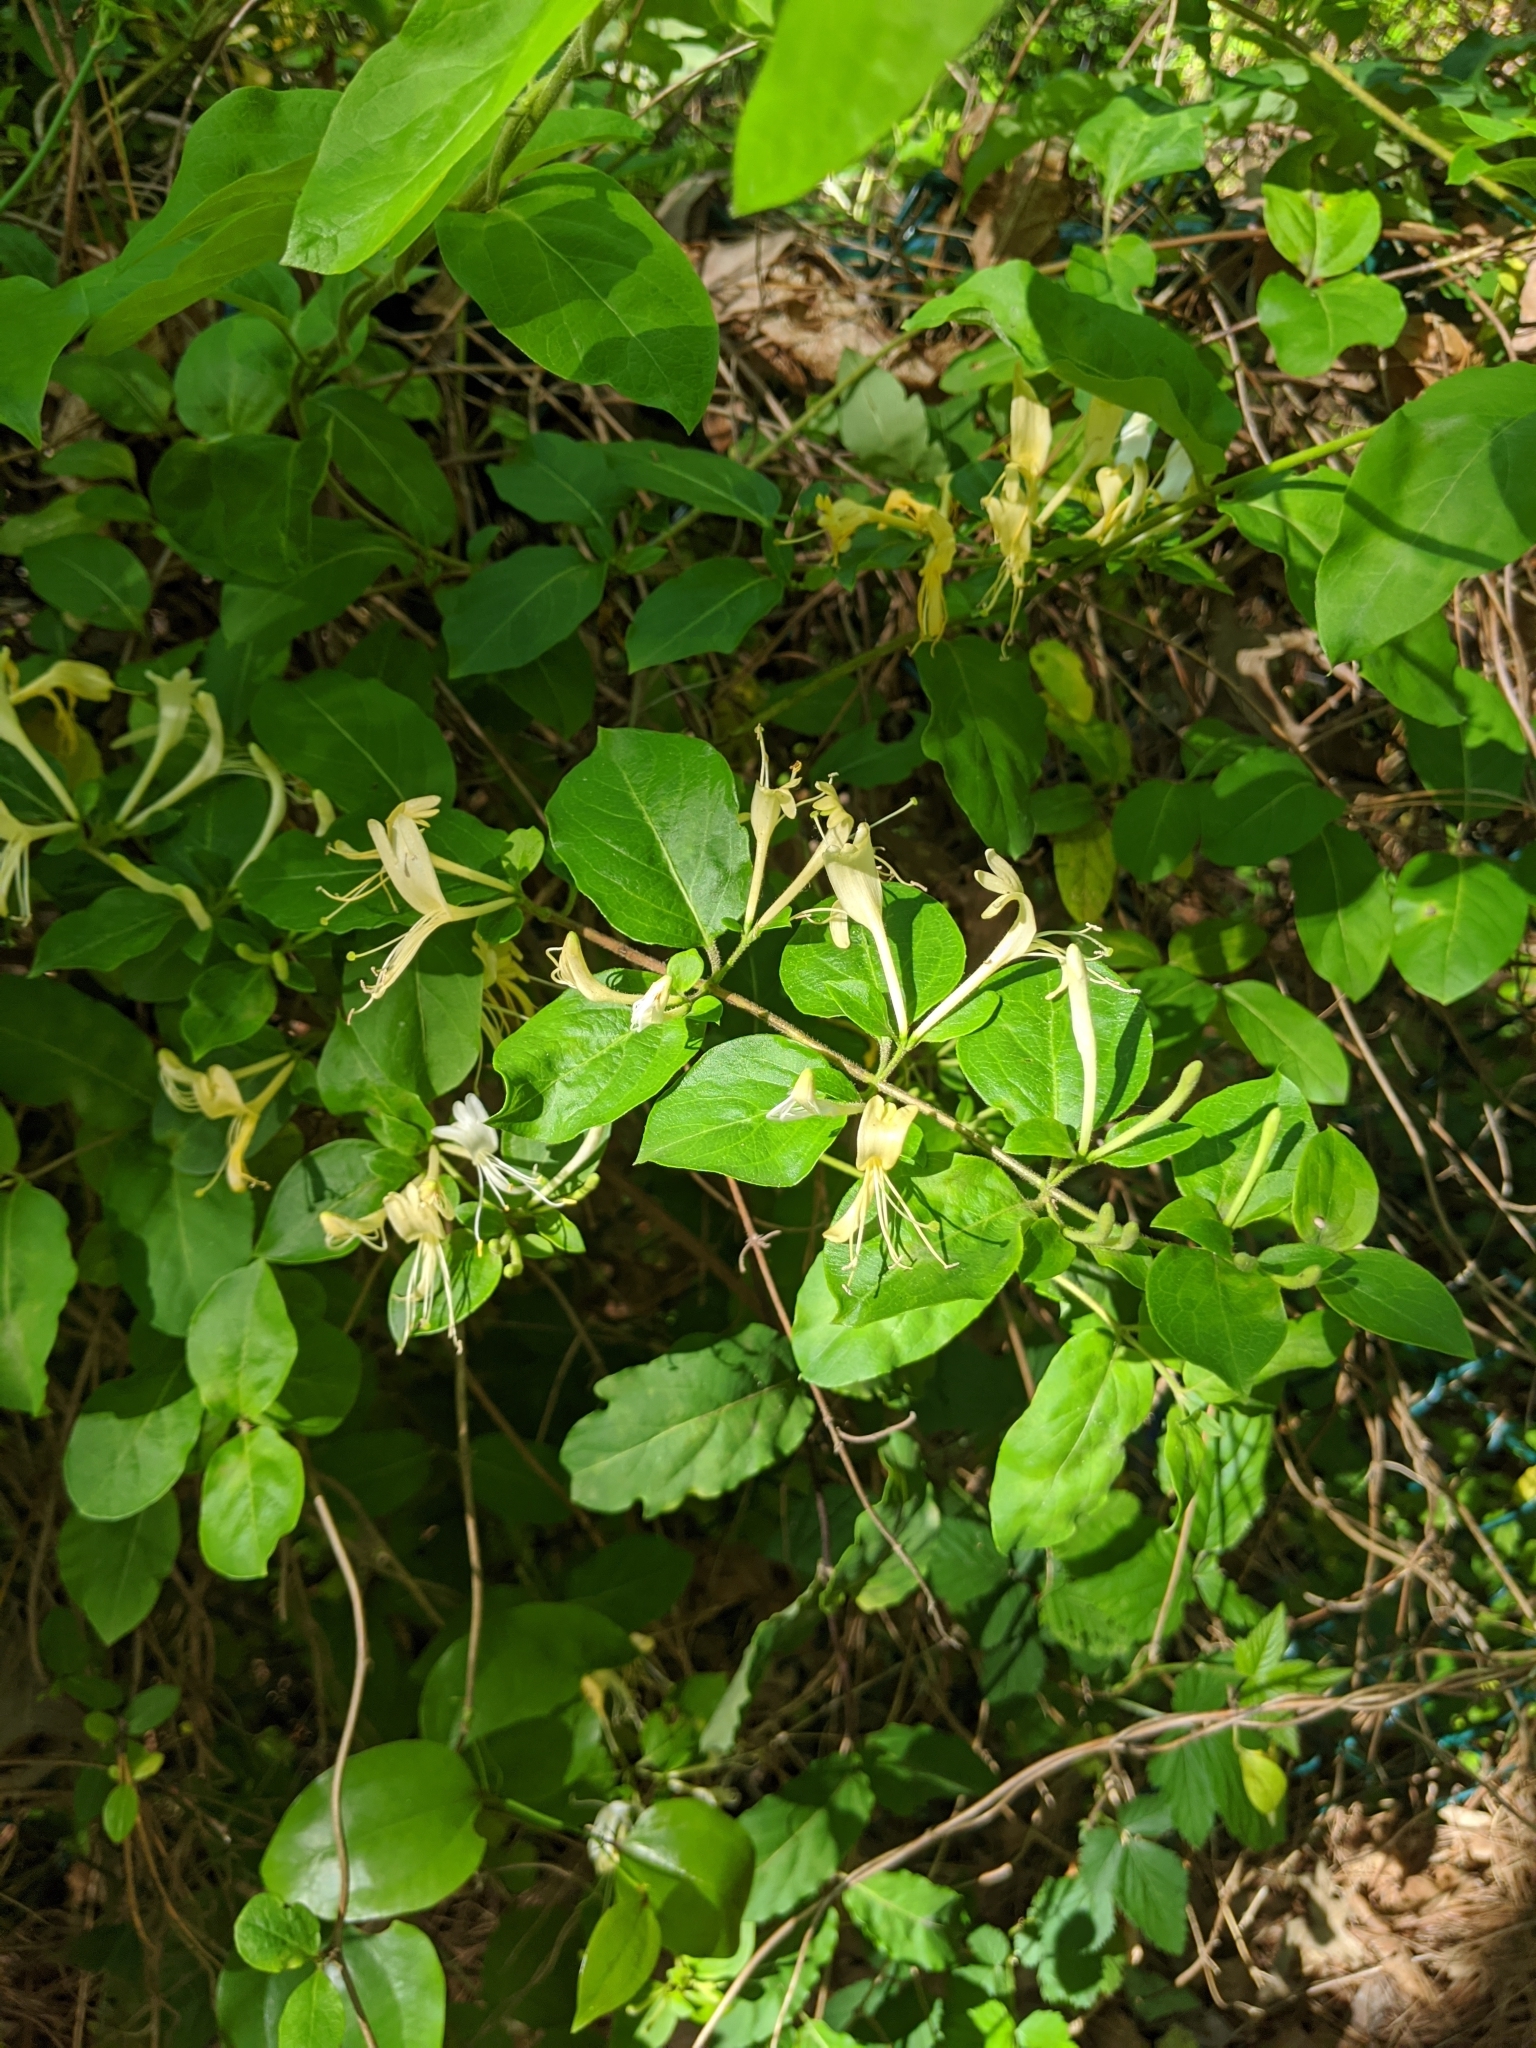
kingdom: Plantae
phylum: Tracheophyta
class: Magnoliopsida
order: Dipsacales
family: Caprifoliaceae
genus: Lonicera
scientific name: Lonicera japonica
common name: Japanese honeysuckle
